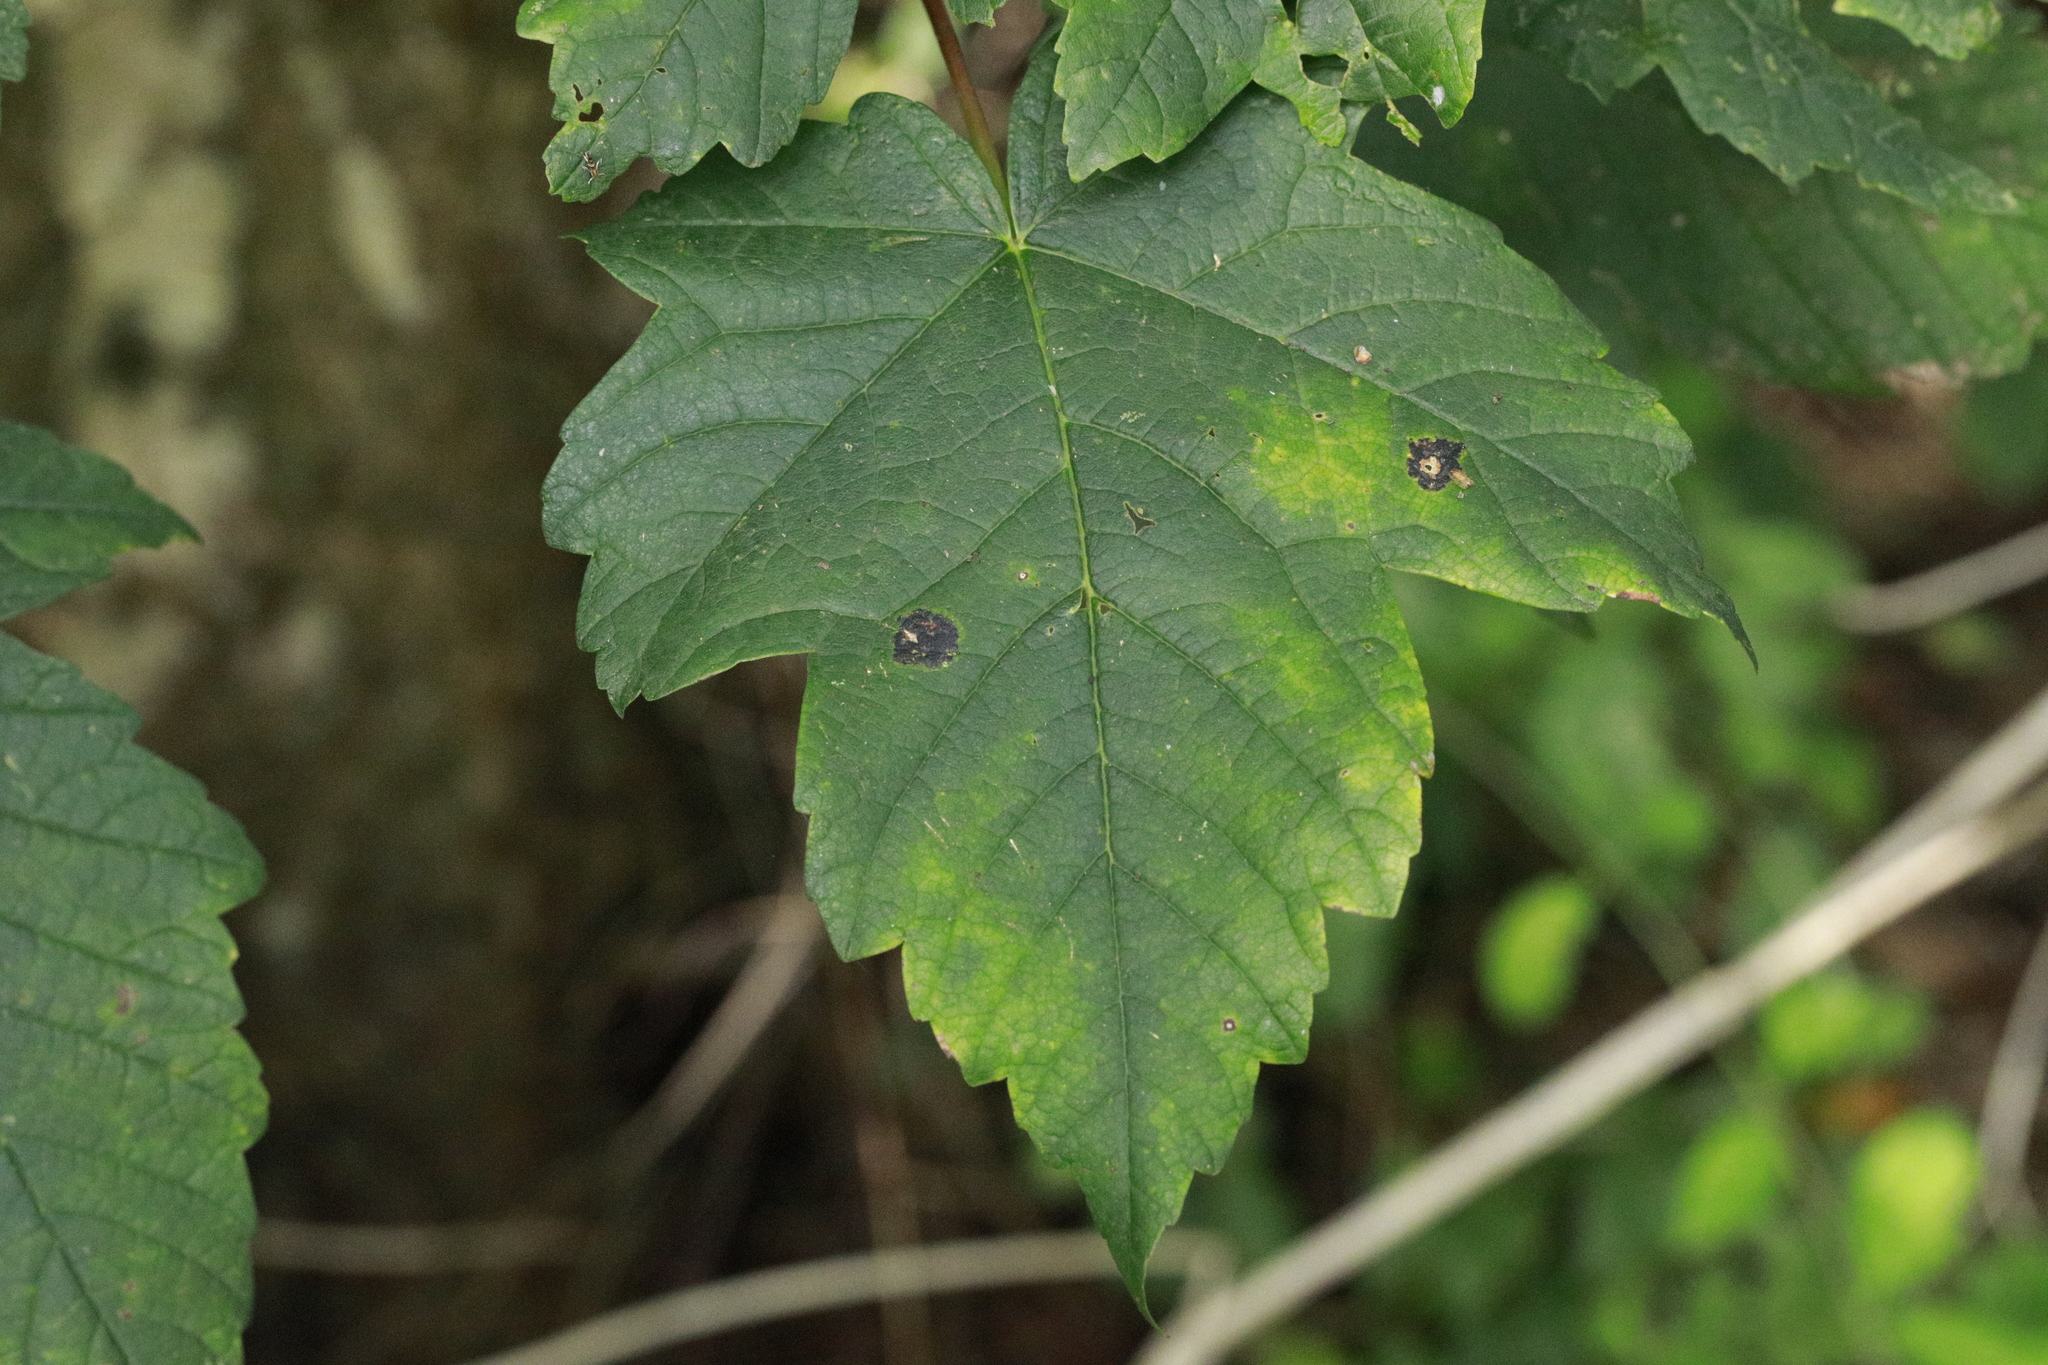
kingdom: Fungi
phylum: Ascomycota
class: Leotiomycetes
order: Rhytismatales
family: Rhytismataceae
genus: Rhytisma
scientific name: Rhytisma acerinum
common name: European tar spot
